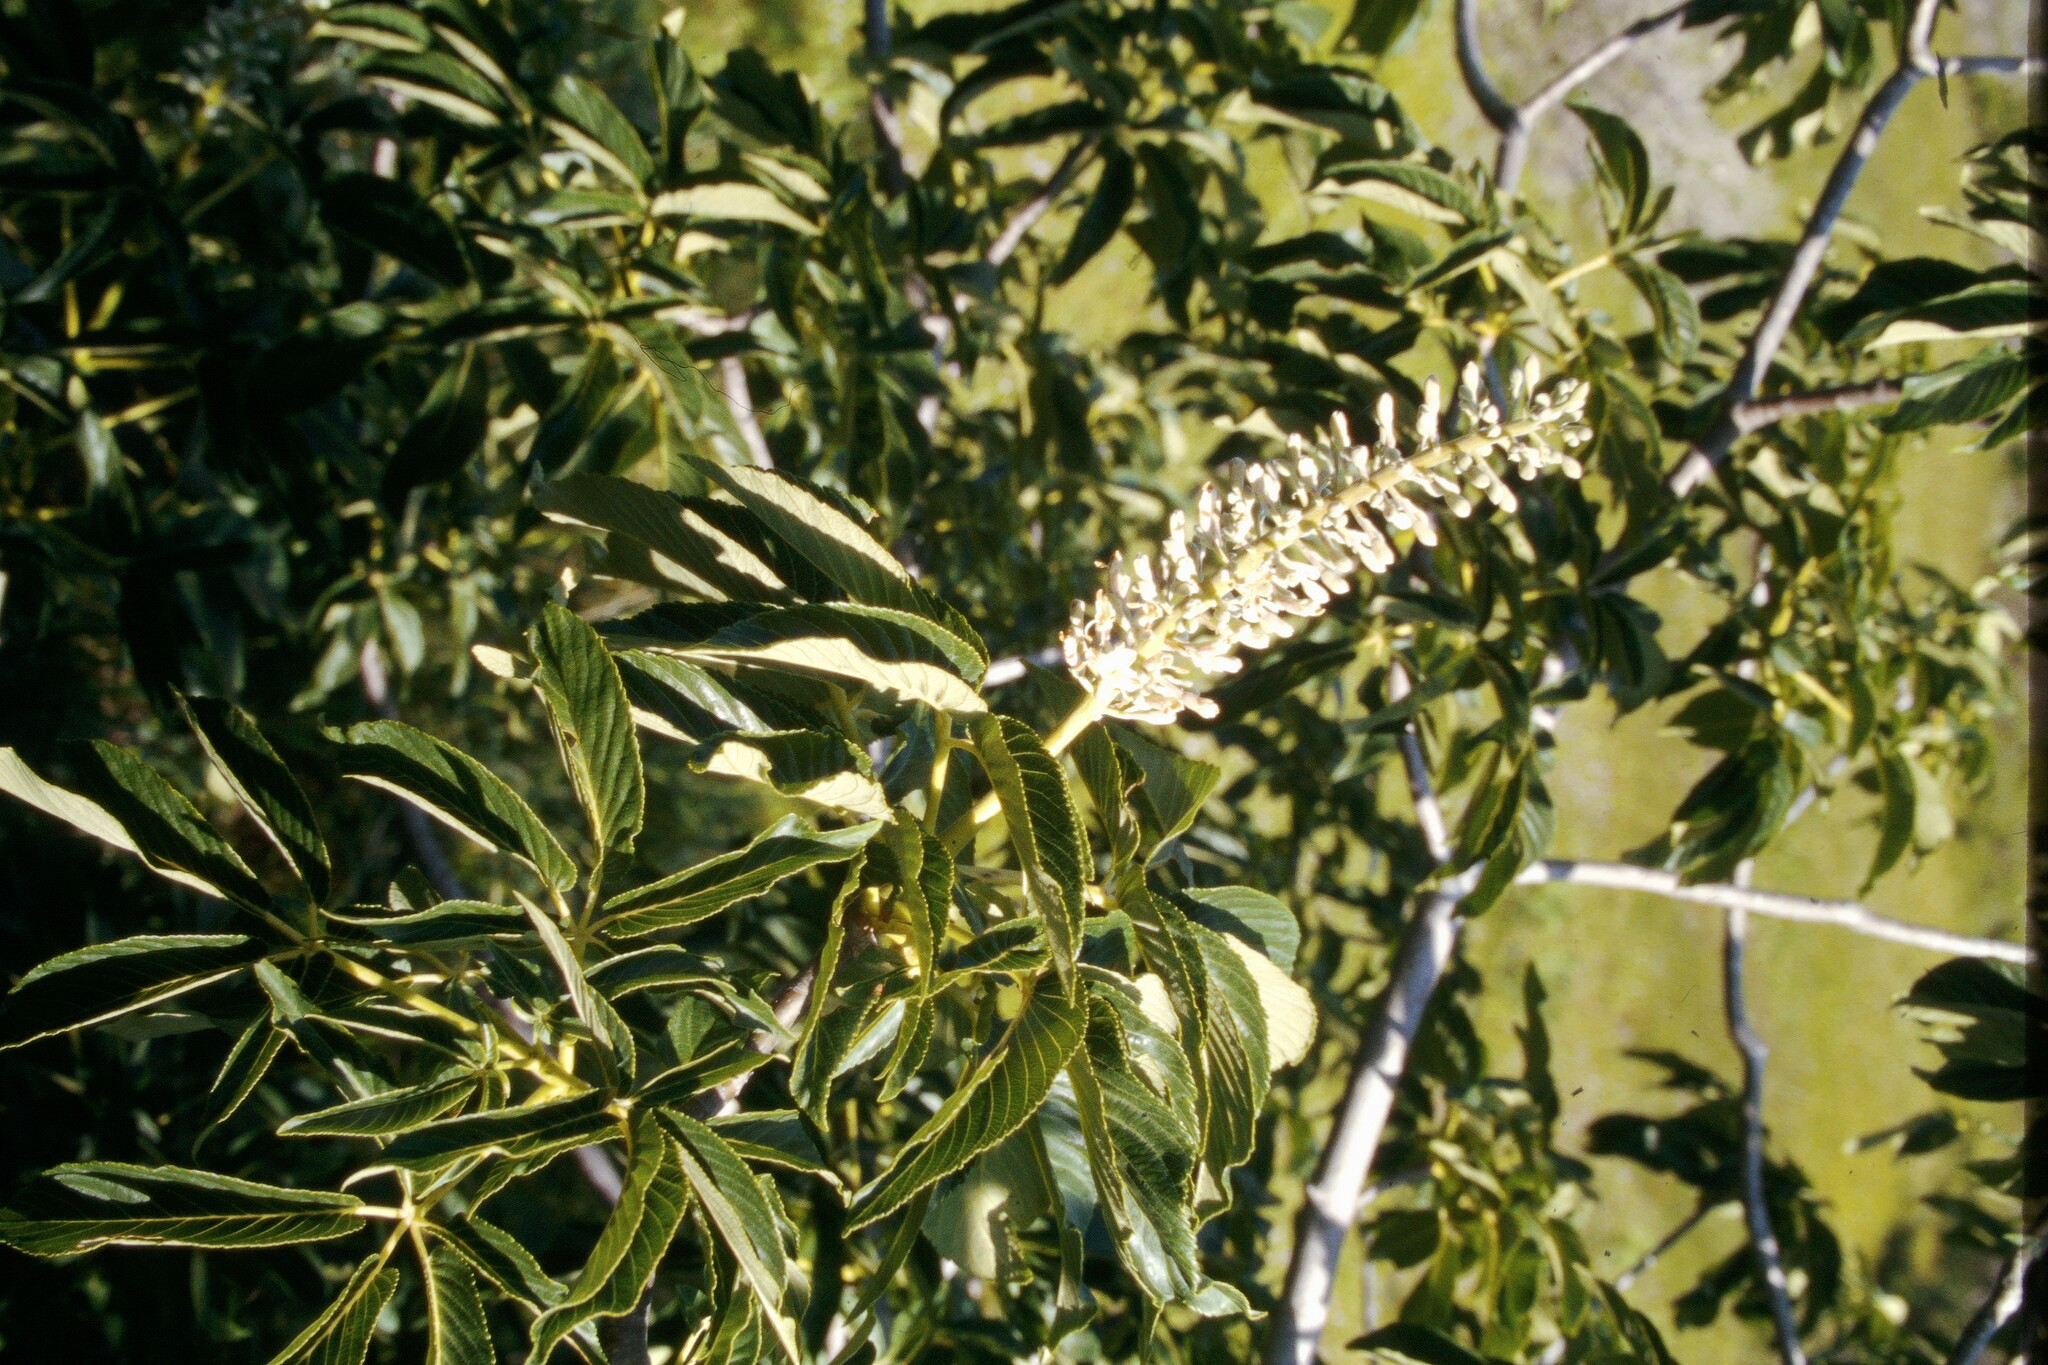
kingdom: Plantae
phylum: Tracheophyta
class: Magnoliopsida
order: Sapindales
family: Sapindaceae
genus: Aesculus
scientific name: Aesculus californica
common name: California buckeye
